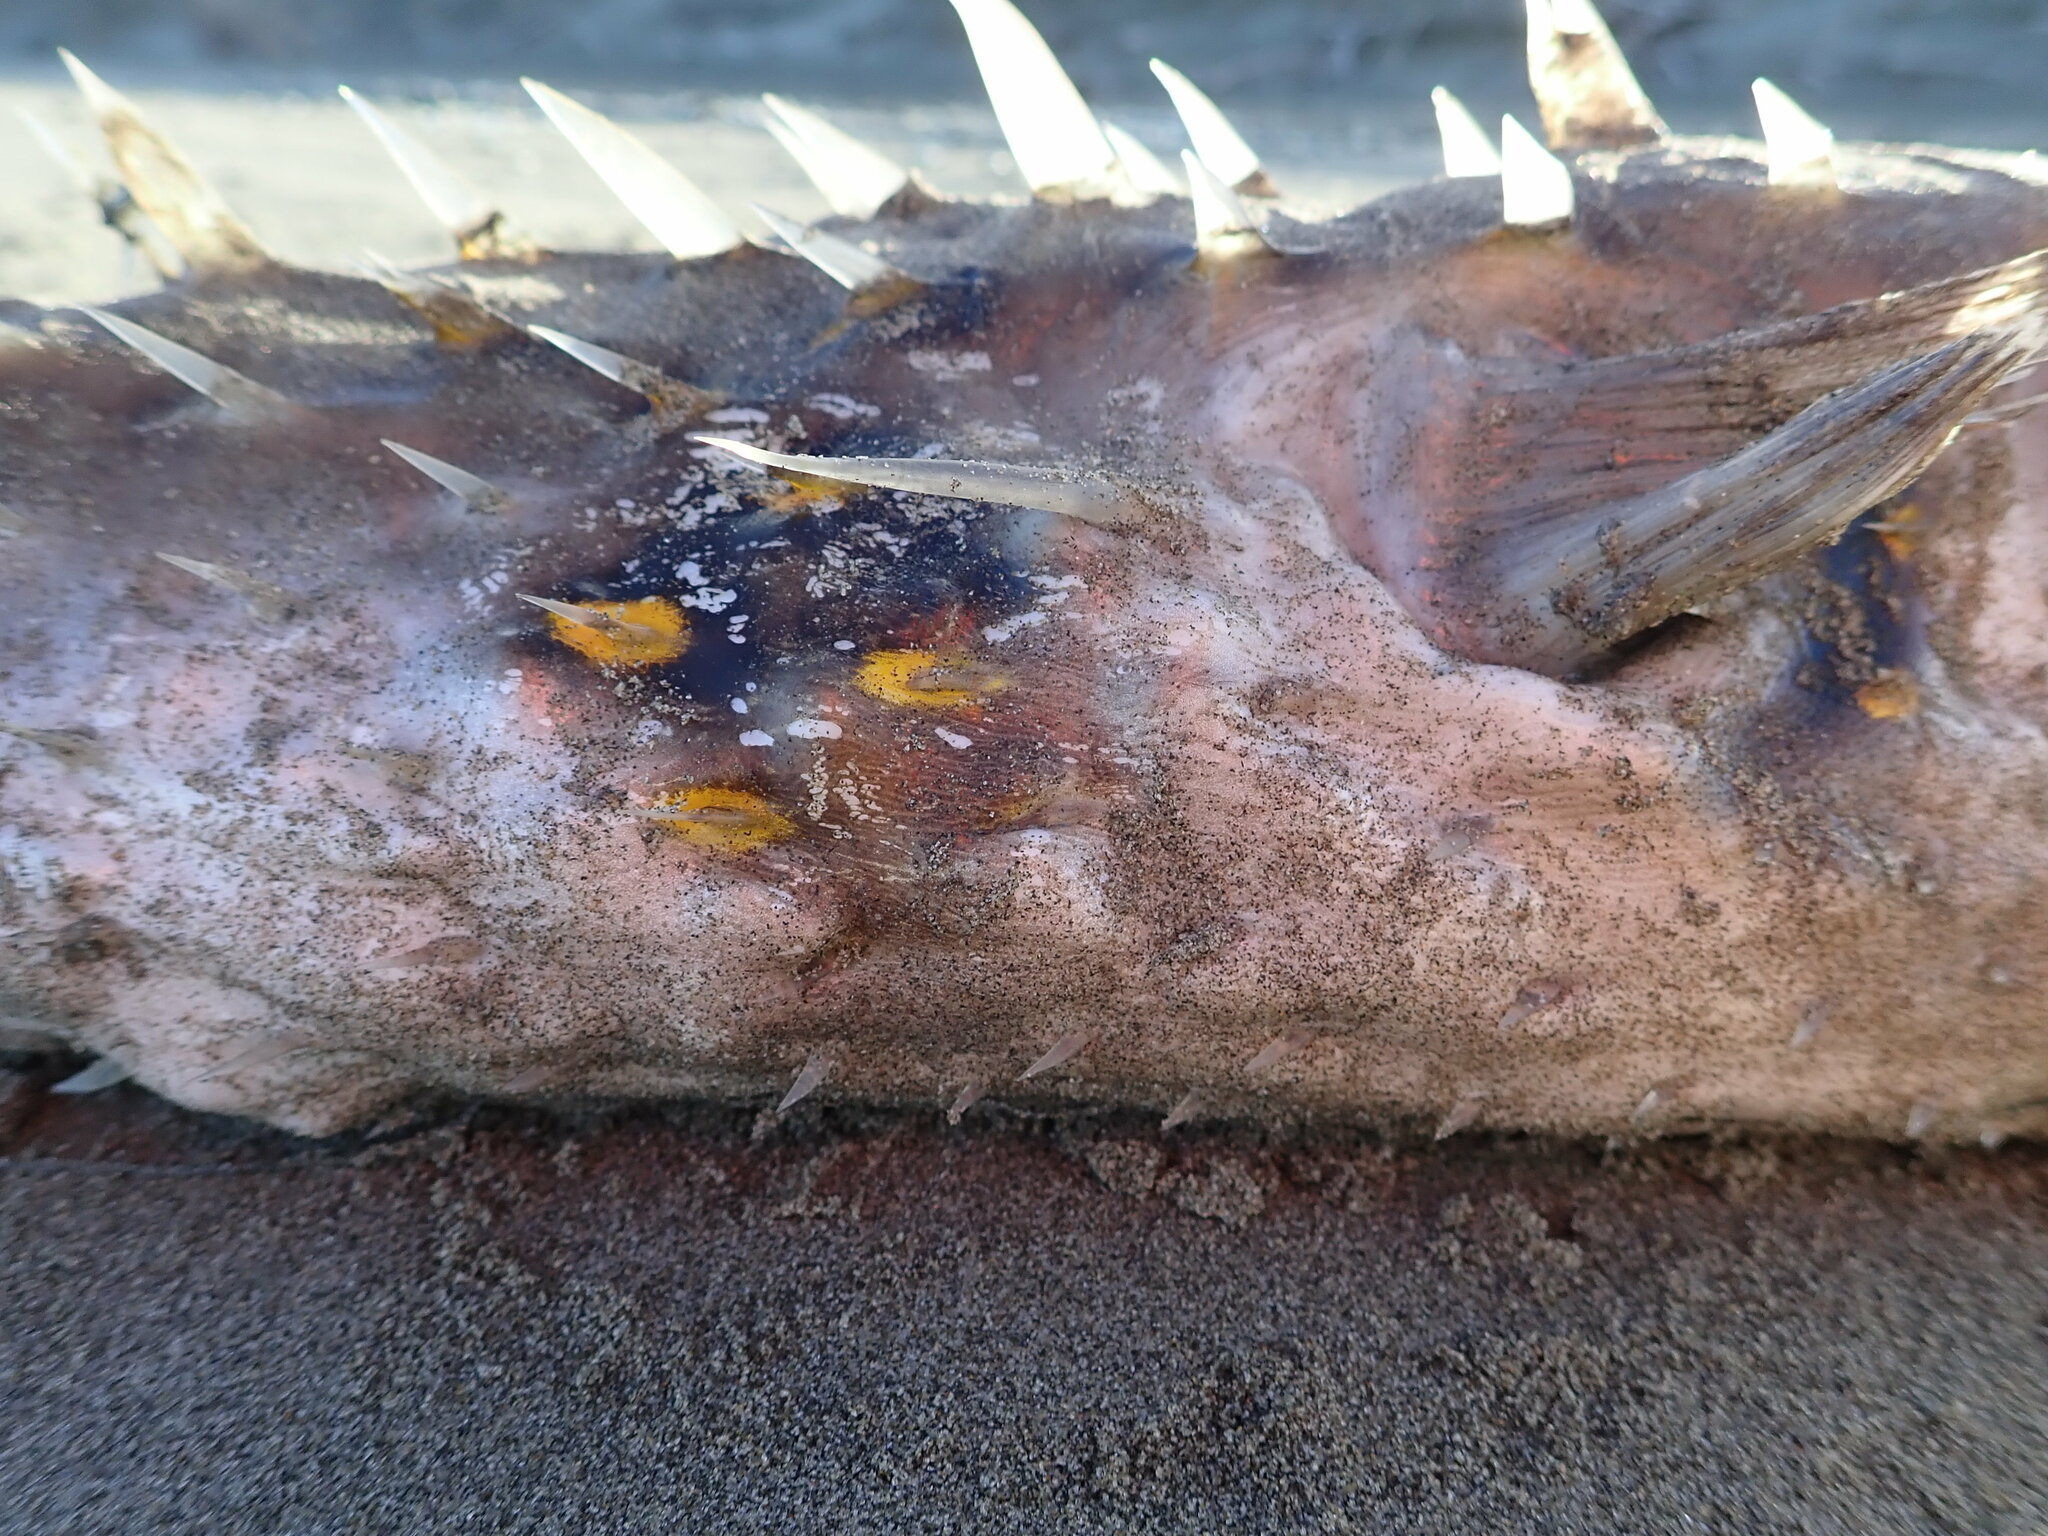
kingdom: Animalia
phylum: Chordata
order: Tetraodontiformes
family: Diodontidae
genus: Allomycterus
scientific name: Allomycterus pilatus
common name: No common name
